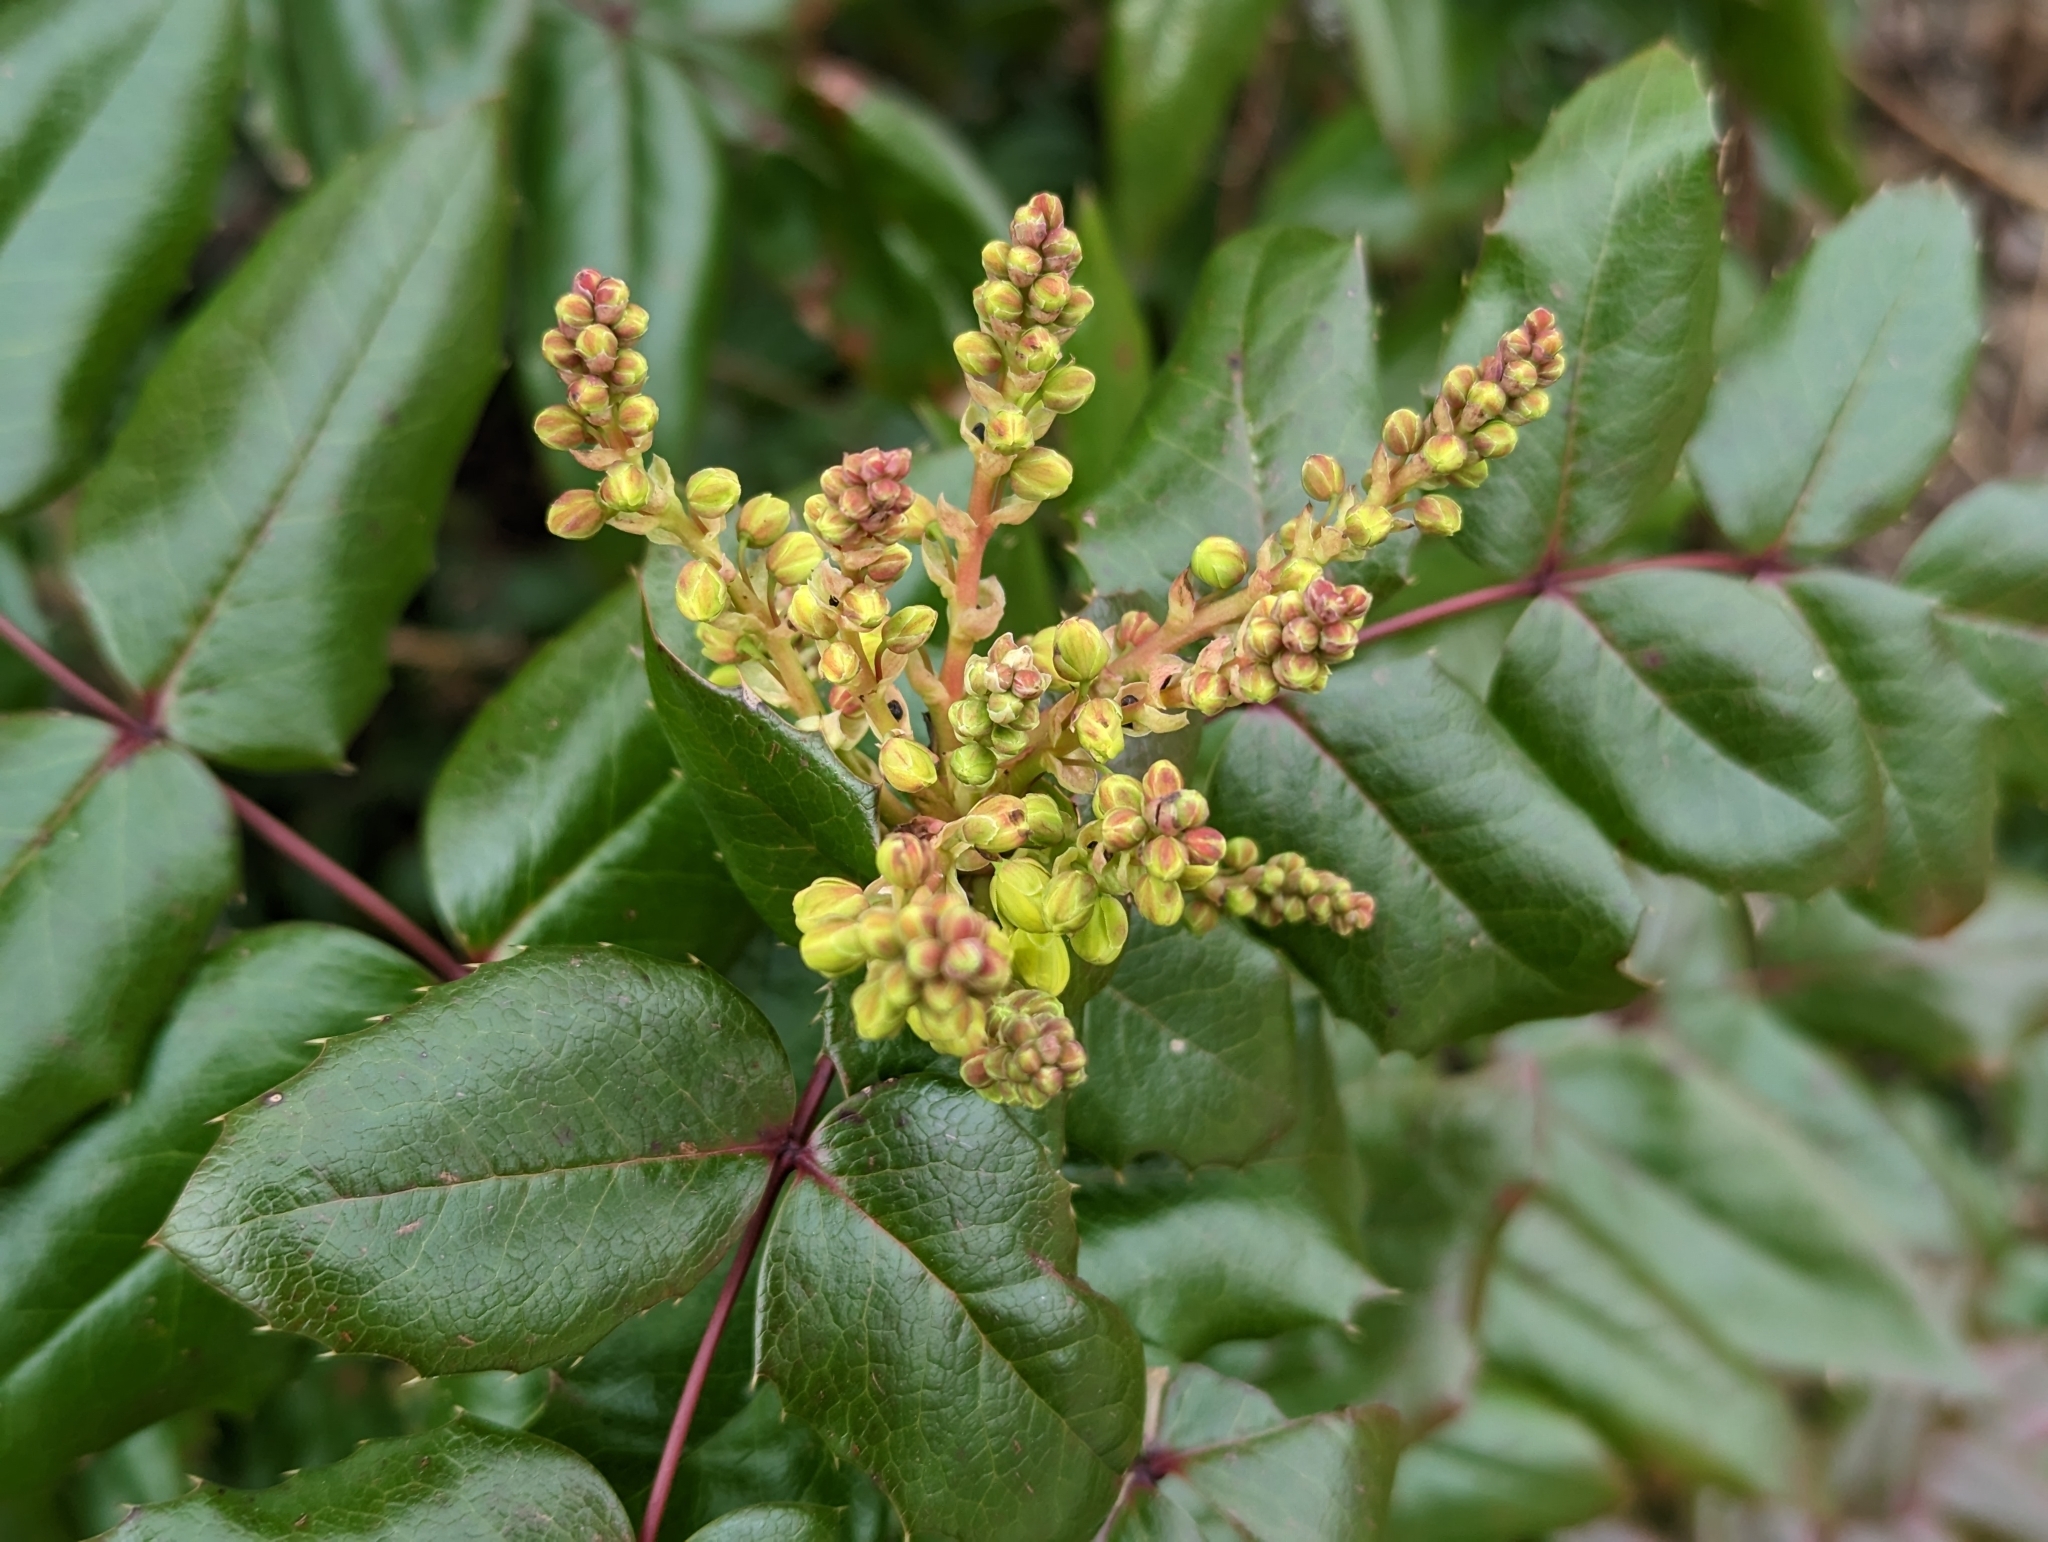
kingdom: Plantae
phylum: Tracheophyta
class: Magnoliopsida
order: Ranunculales
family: Berberidaceae
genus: Mahonia
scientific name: Mahonia aquifolium
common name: Oregon-grape
